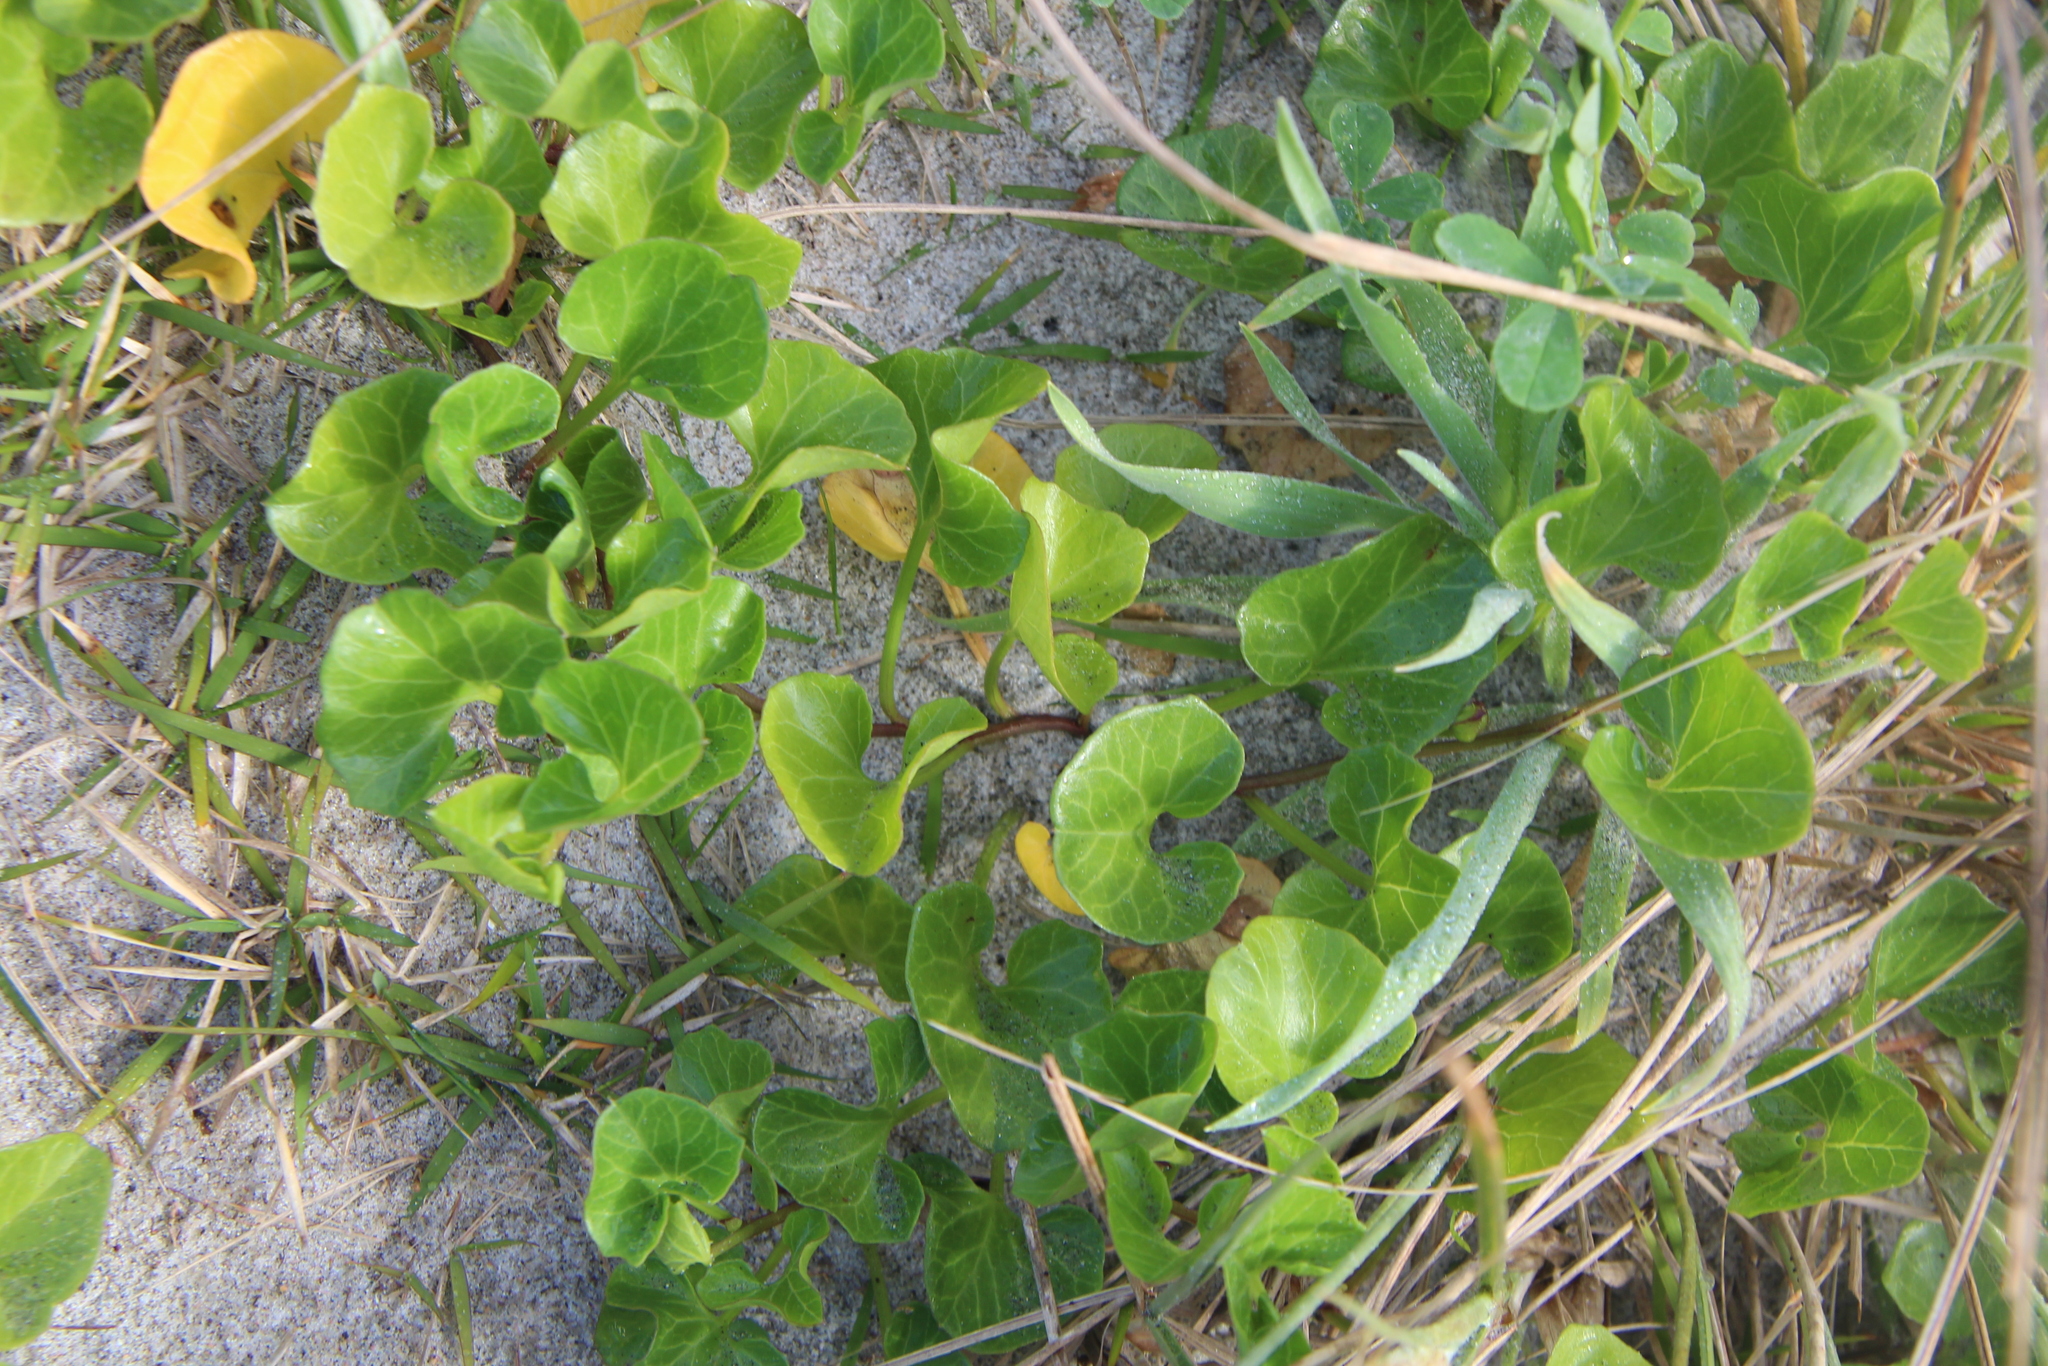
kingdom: Plantae
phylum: Tracheophyta
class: Magnoliopsida
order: Solanales
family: Convolvulaceae
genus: Calystegia
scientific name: Calystegia soldanella
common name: Sea bindweed
